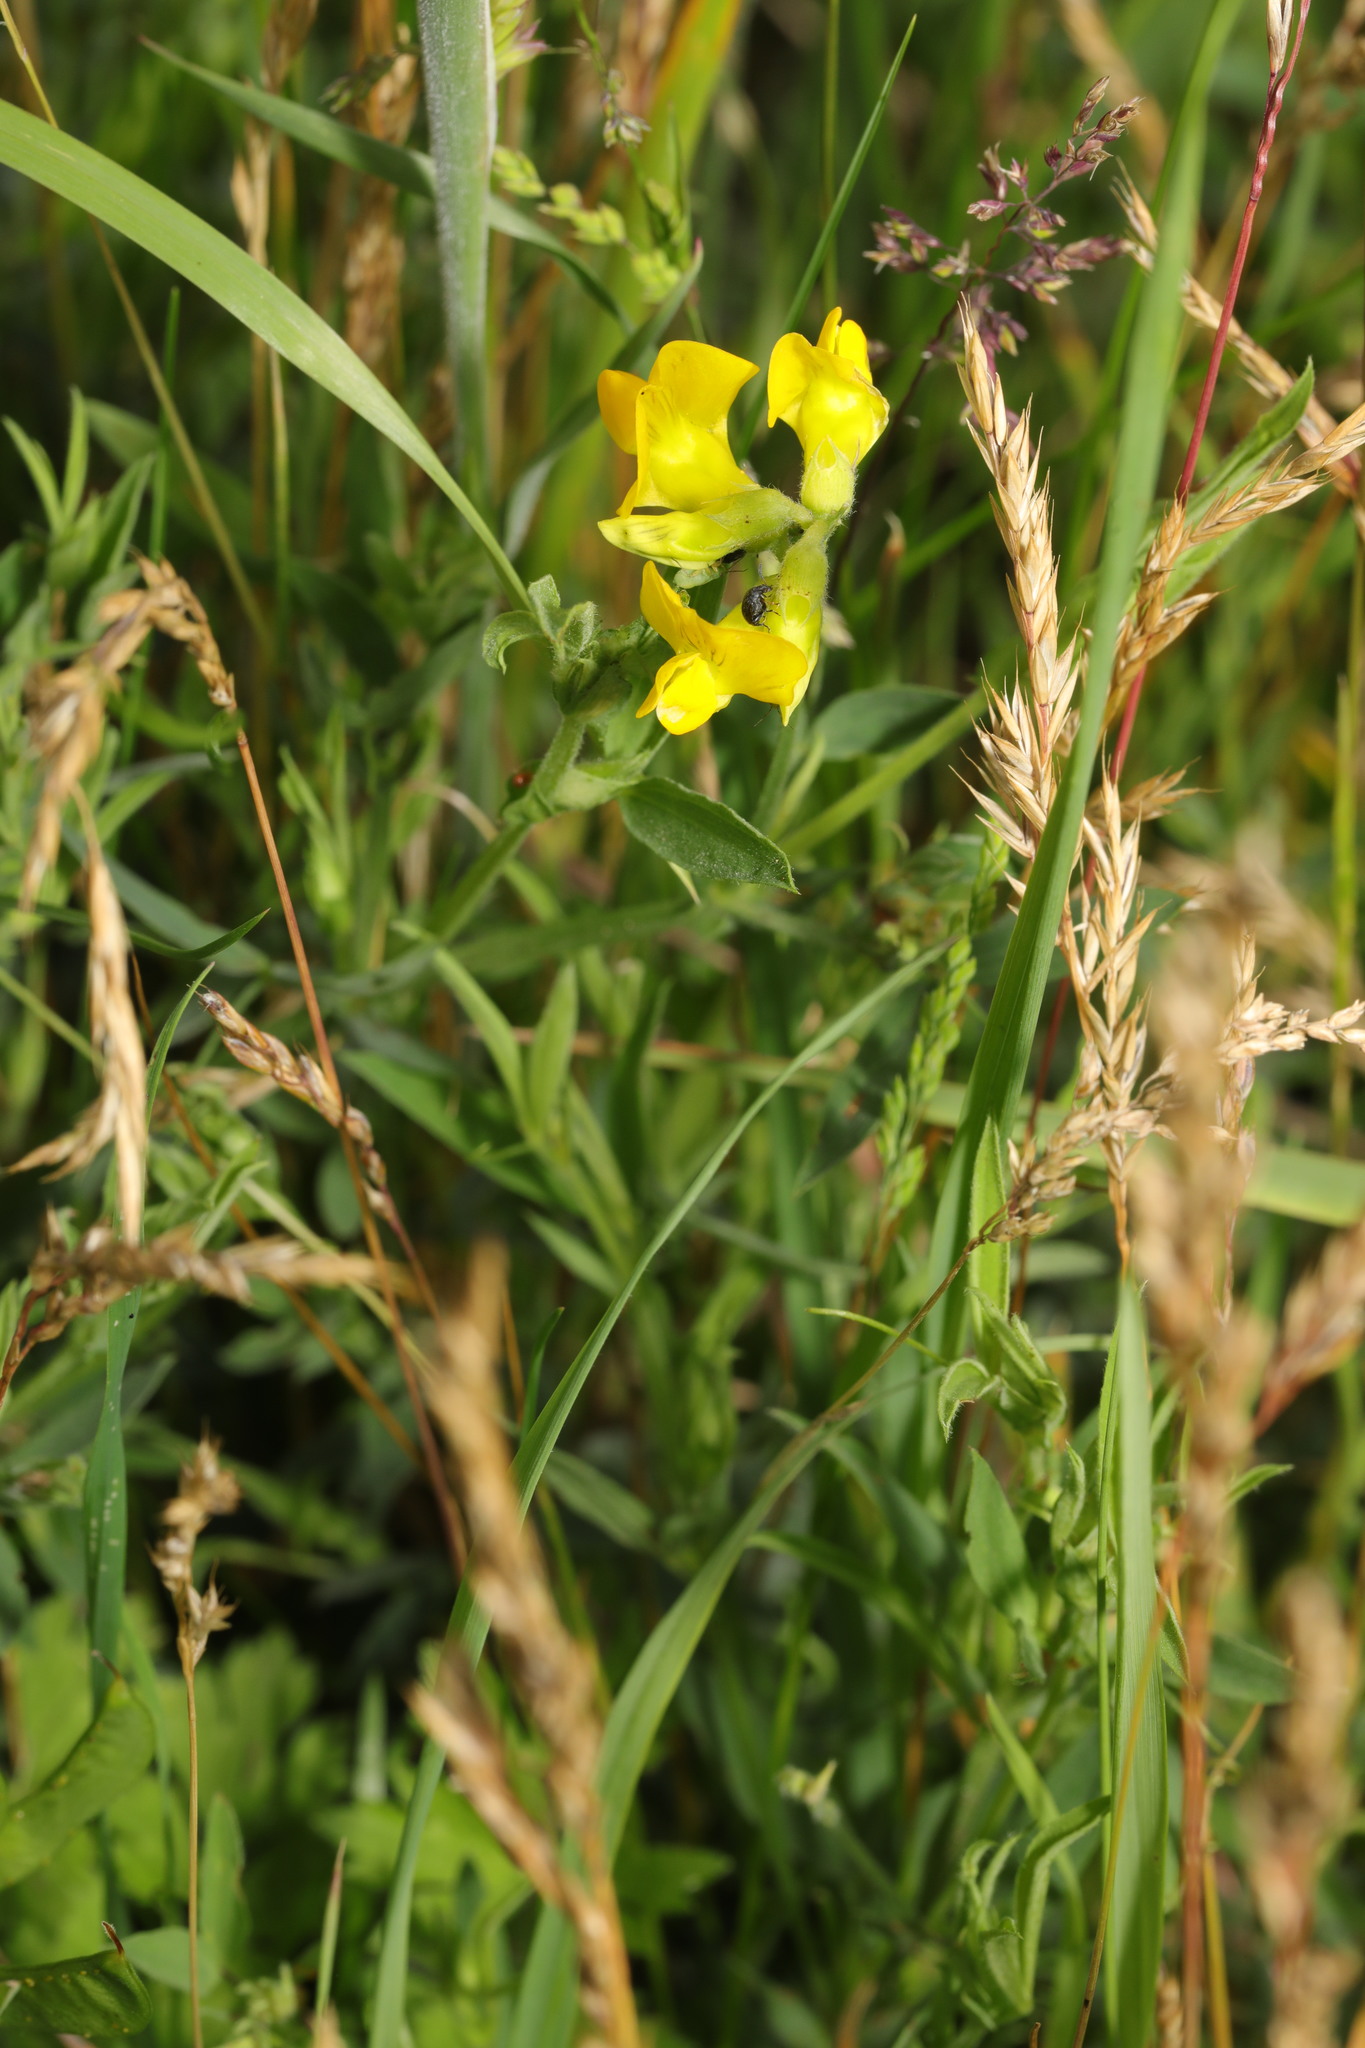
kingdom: Plantae
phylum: Tracheophyta
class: Magnoliopsida
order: Fabales
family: Fabaceae
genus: Lathyrus
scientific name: Lathyrus pratensis
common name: Meadow vetchling
